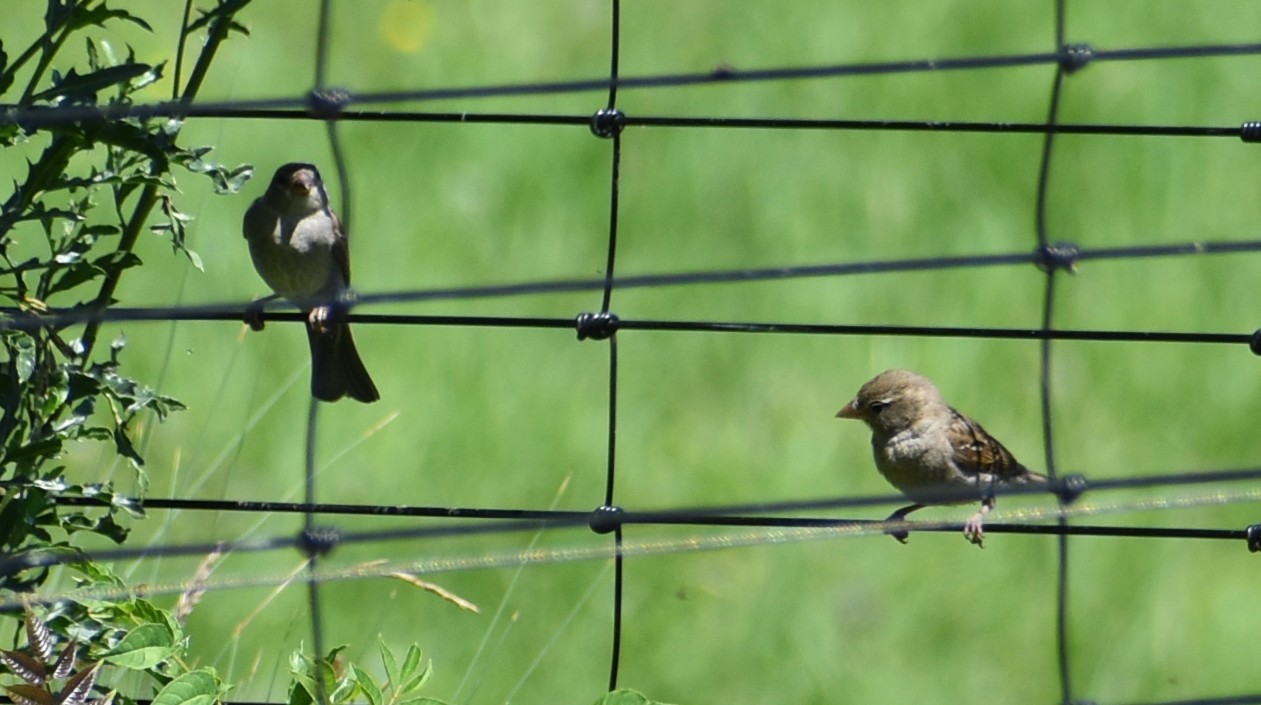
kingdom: Animalia
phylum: Chordata
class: Aves
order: Passeriformes
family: Passeridae
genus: Passer
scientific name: Passer domesticus
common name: House sparrow
